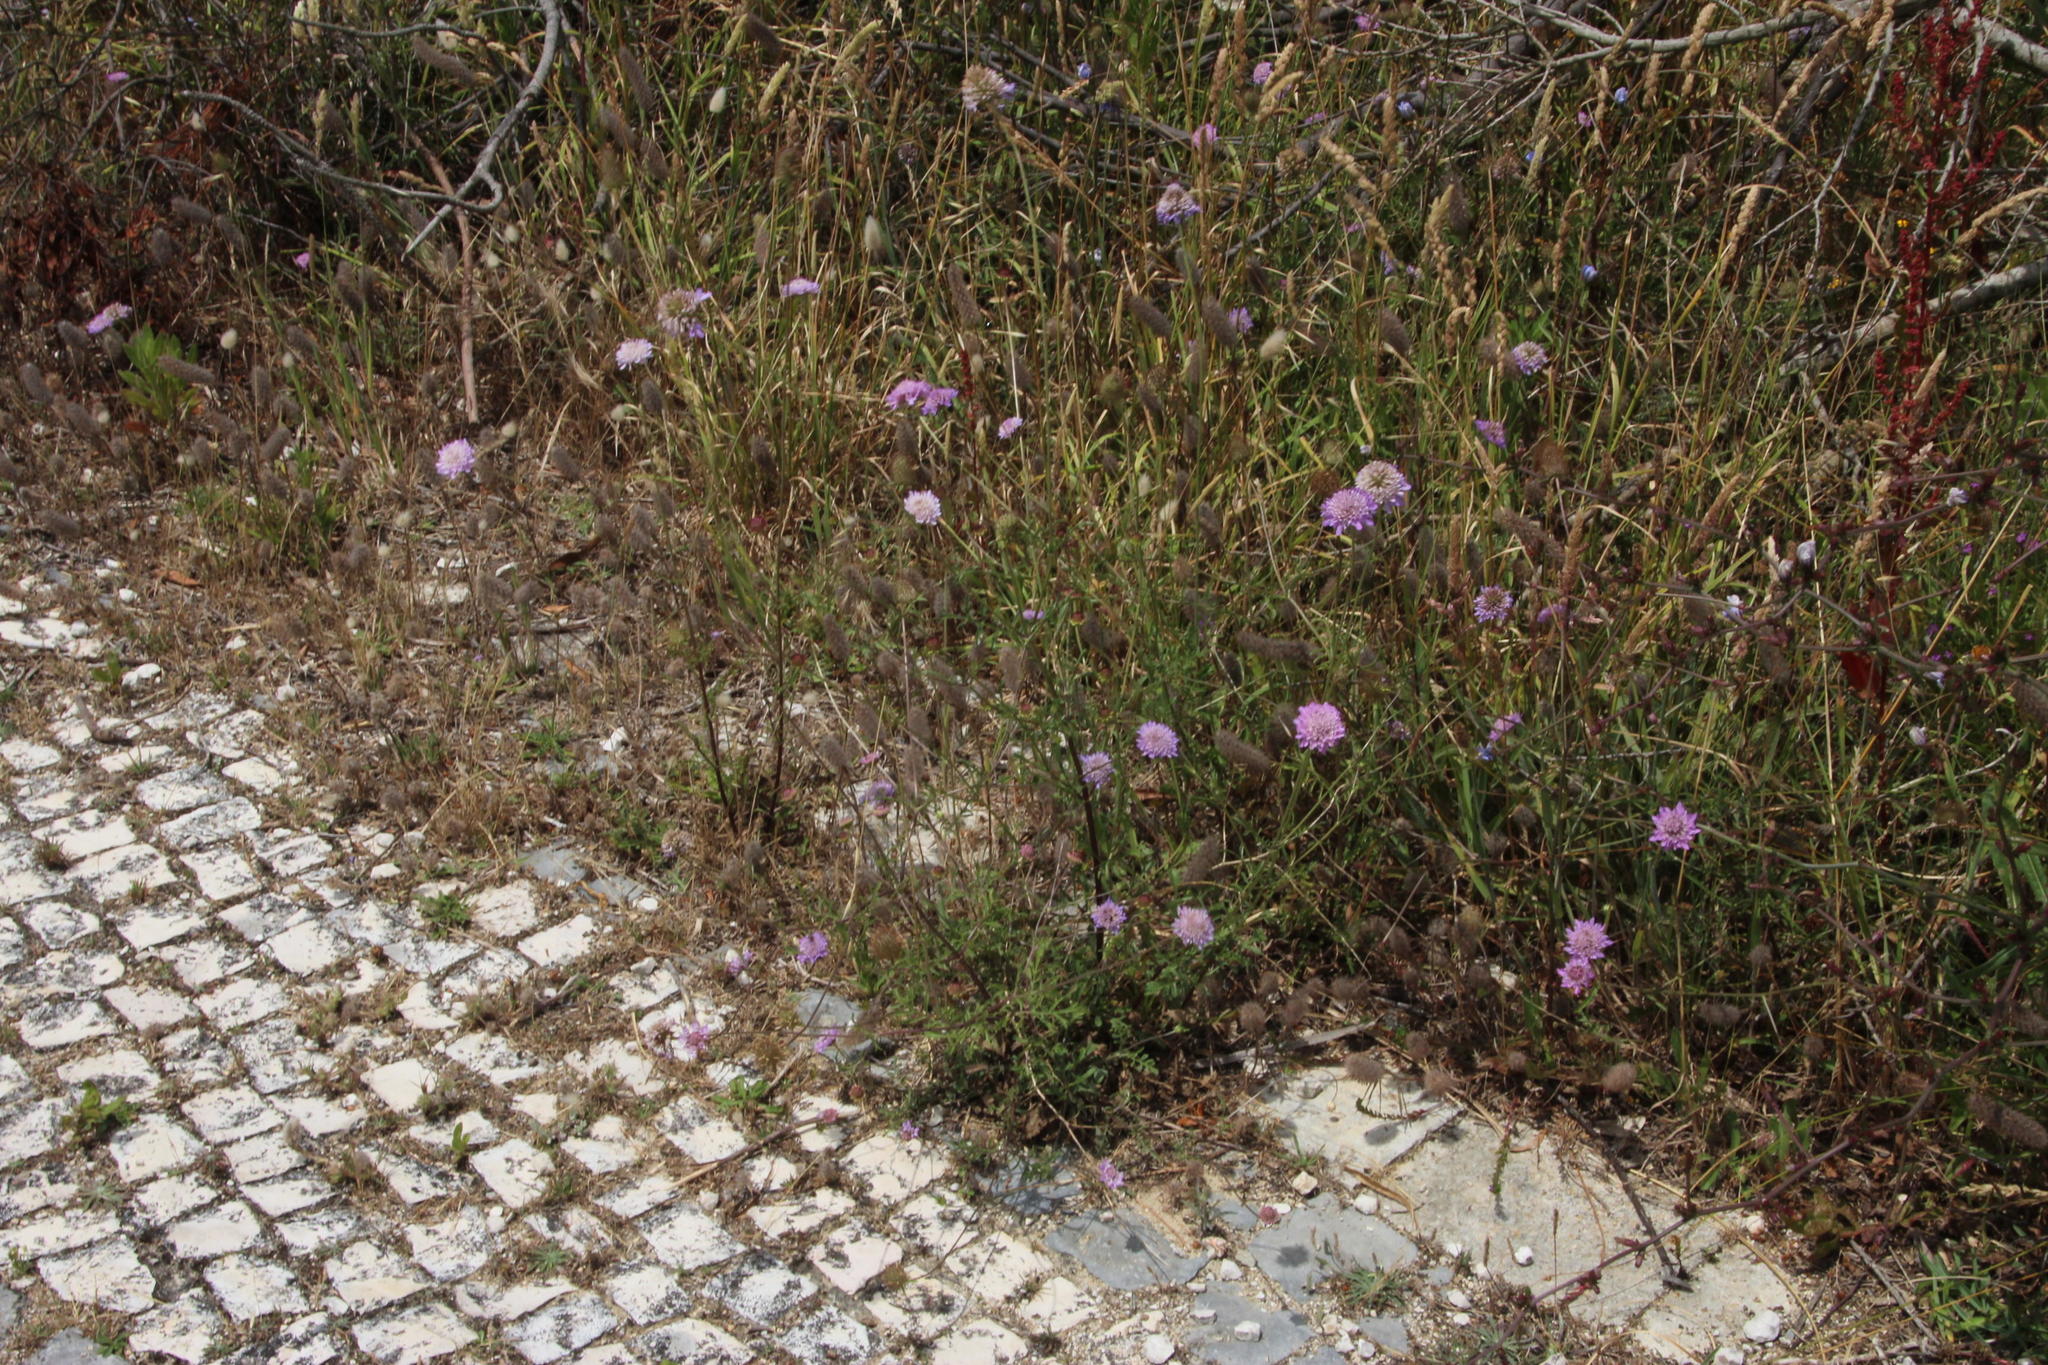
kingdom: Plantae
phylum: Tracheophyta
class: Magnoliopsida
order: Dipsacales
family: Caprifoliaceae
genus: Sixalix
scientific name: Sixalix atropurpurea
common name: Sweet scabious
